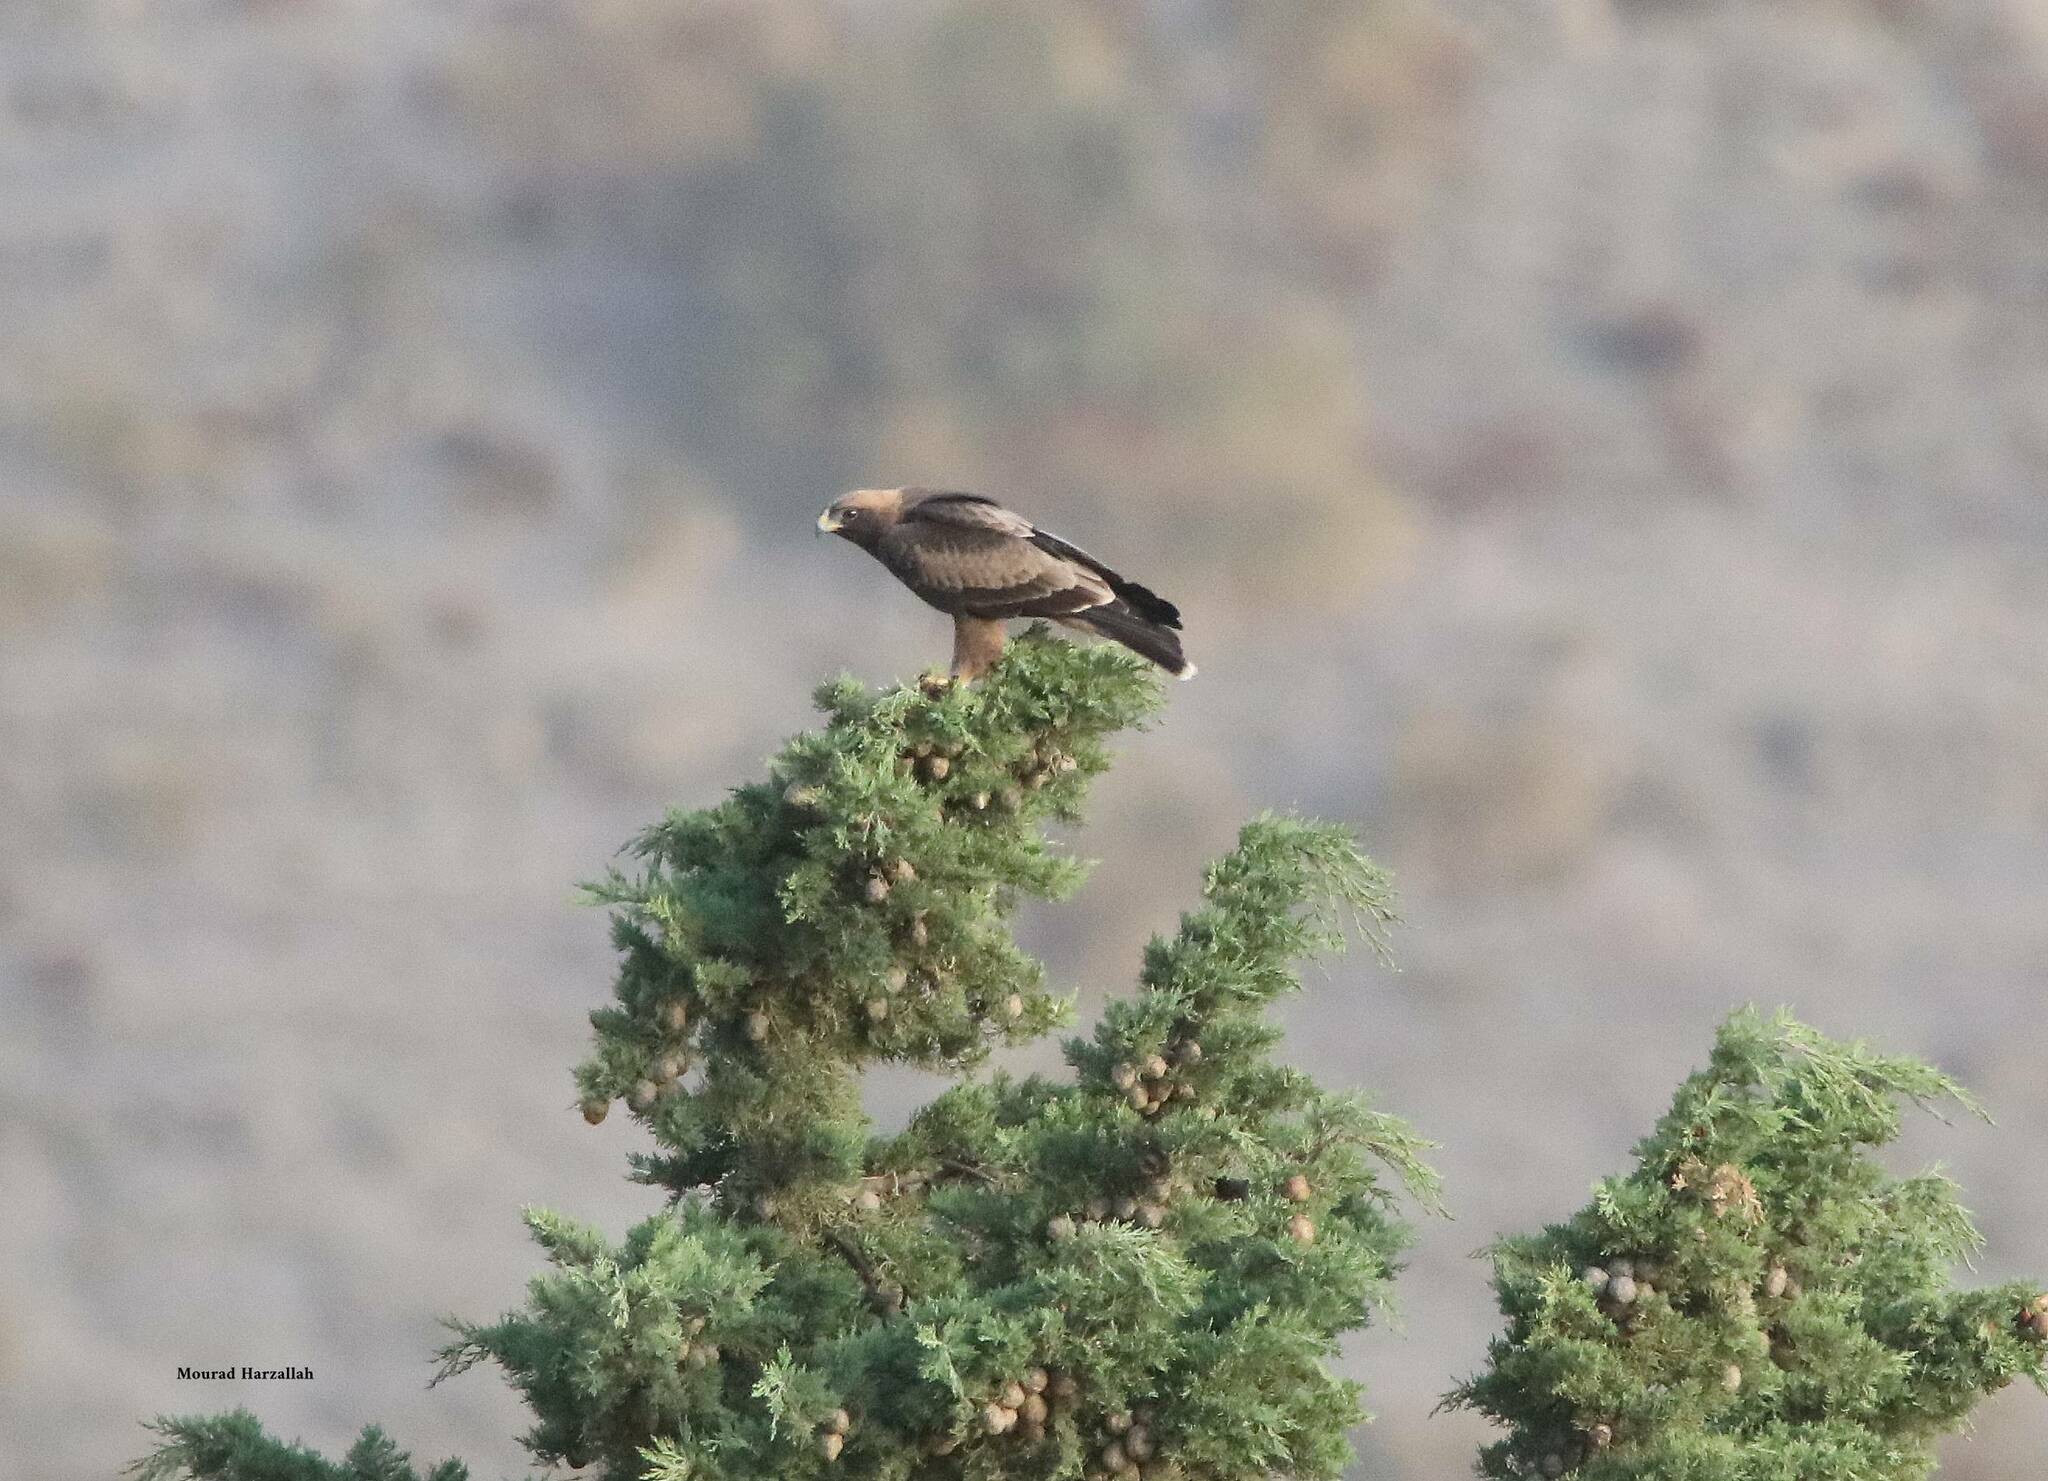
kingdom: Animalia
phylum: Chordata
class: Aves
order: Accipitriformes
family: Accipitridae
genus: Hieraaetus
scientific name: Hieraaetus pennatus
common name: Booted eagle
